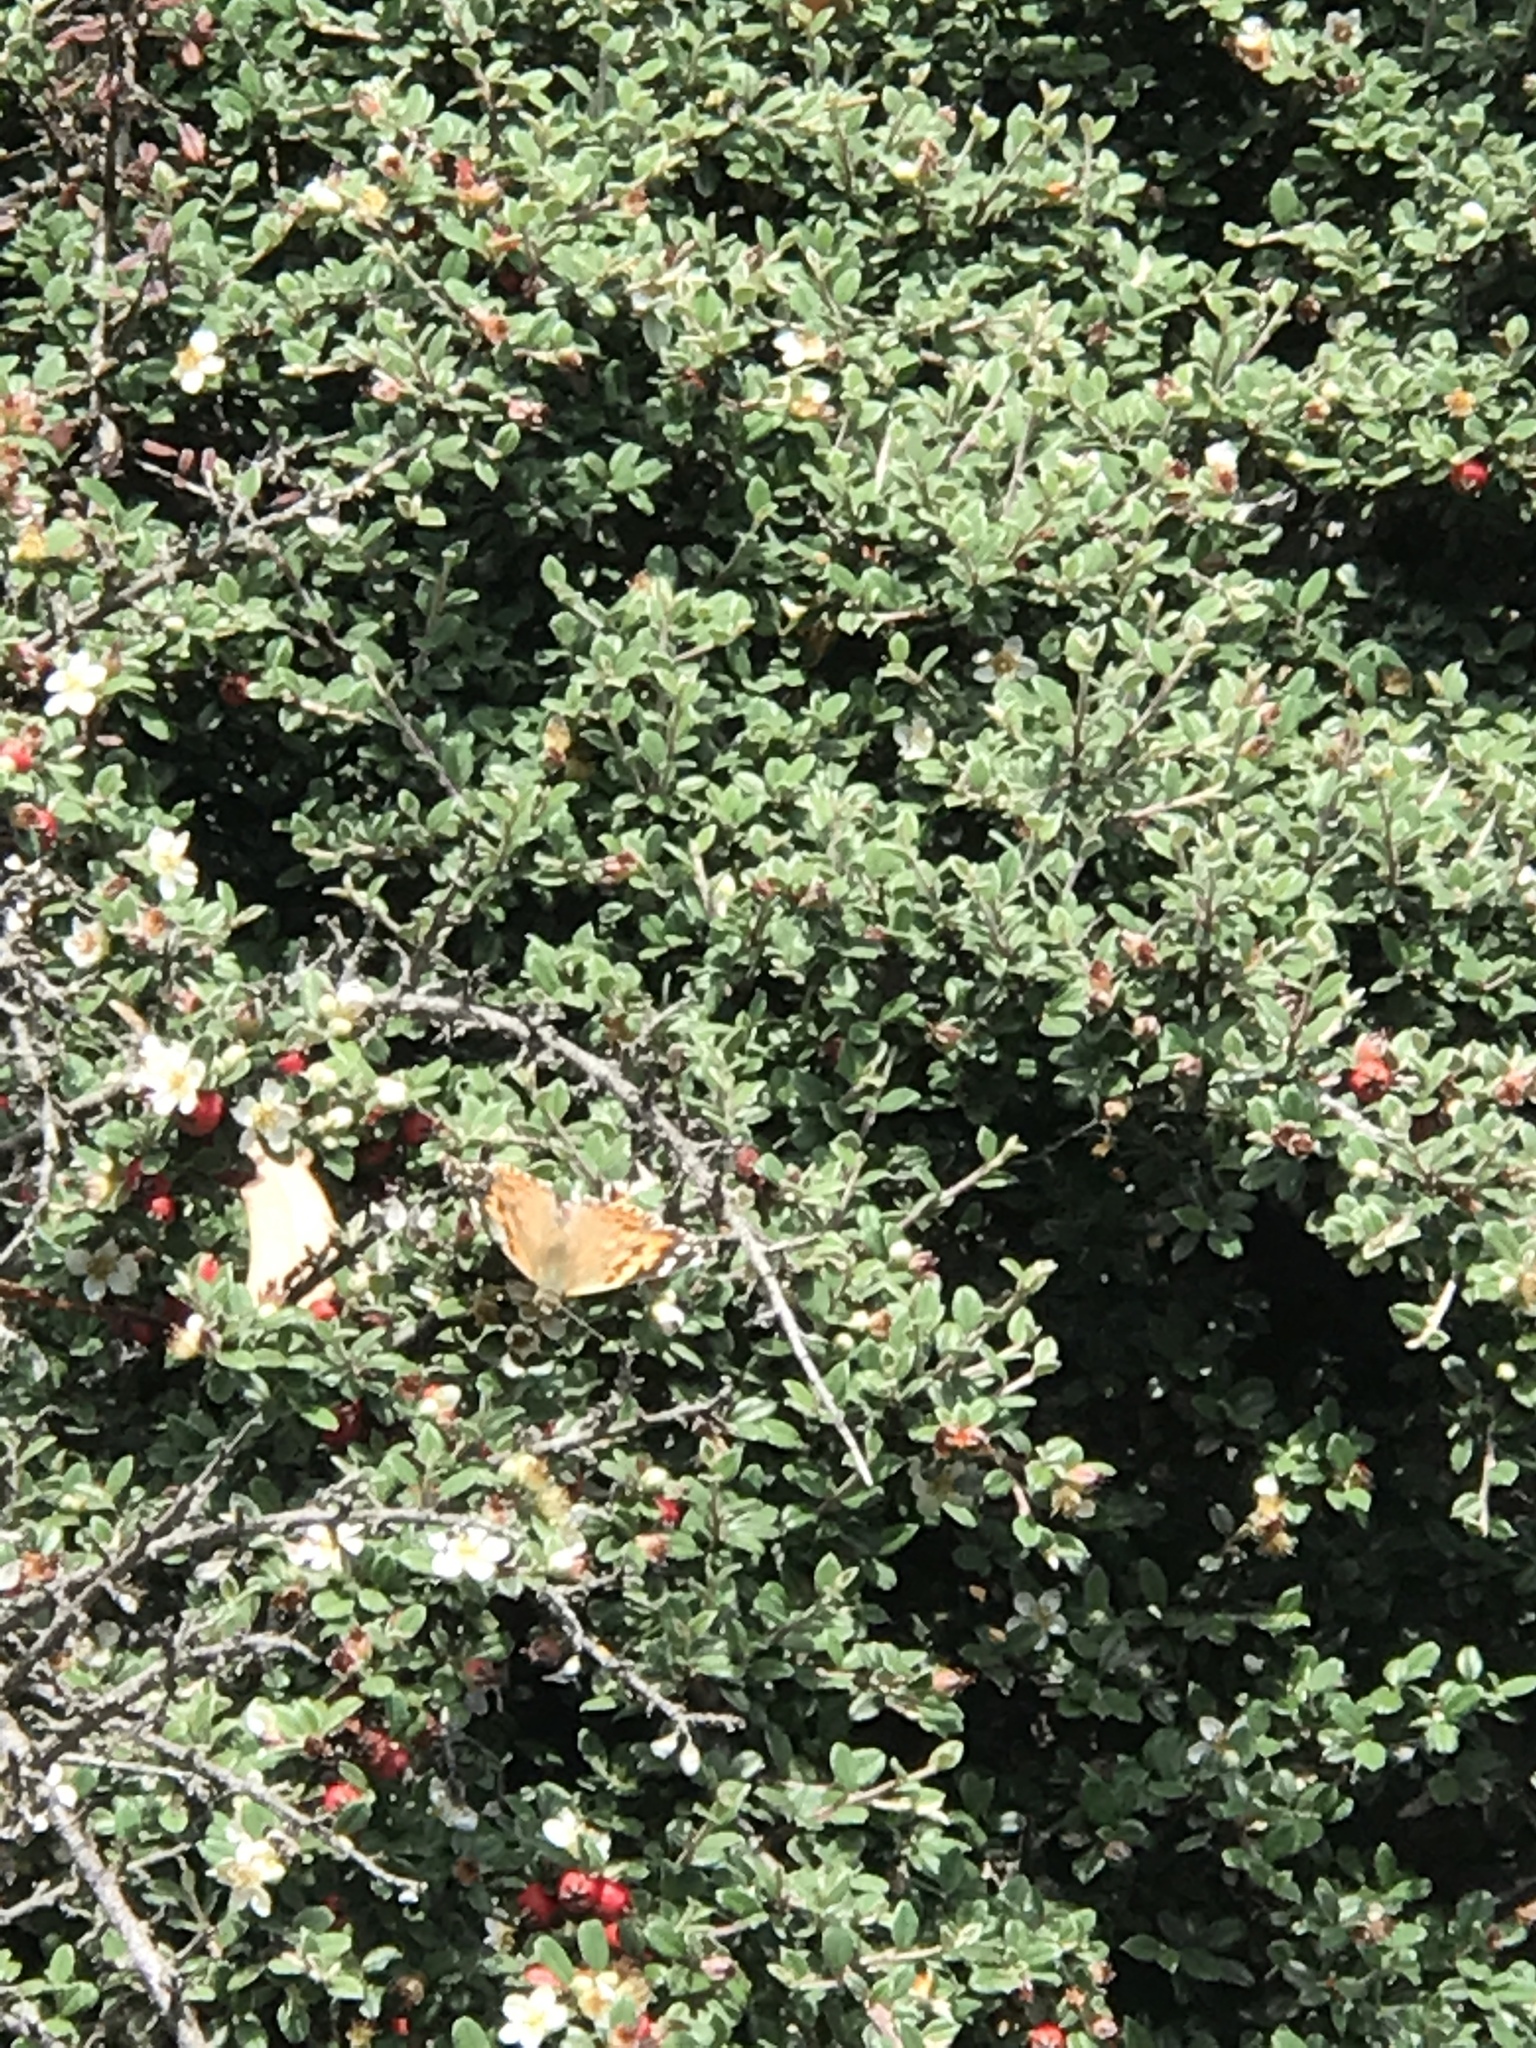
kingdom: Animalia
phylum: Arthropoda
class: Insecta
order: Lepidoptera
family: Nymphalidae
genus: Vanessa
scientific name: Vanessa cardui
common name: Painted lady
